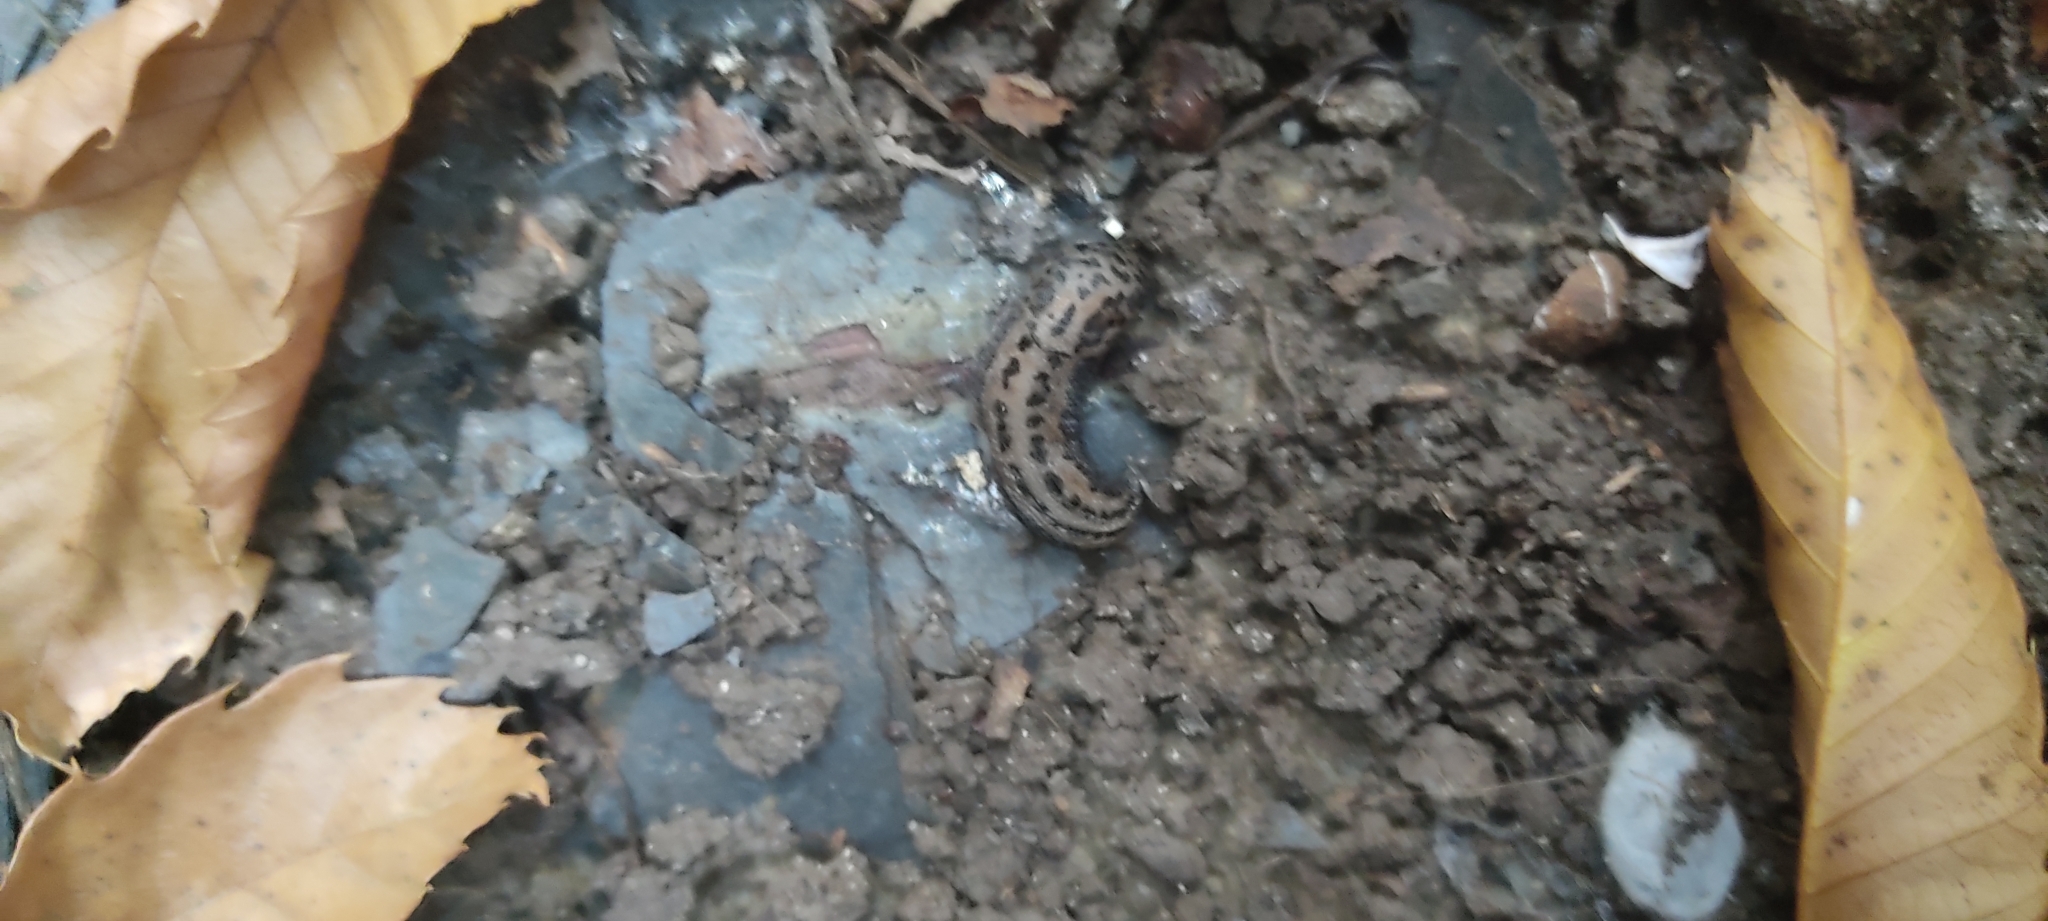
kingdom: Animalia
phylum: Mollusca
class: Gastropoda
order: Stylommatophora
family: Limacidae
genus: Limax
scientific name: Limax maximus
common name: Great grey slug
